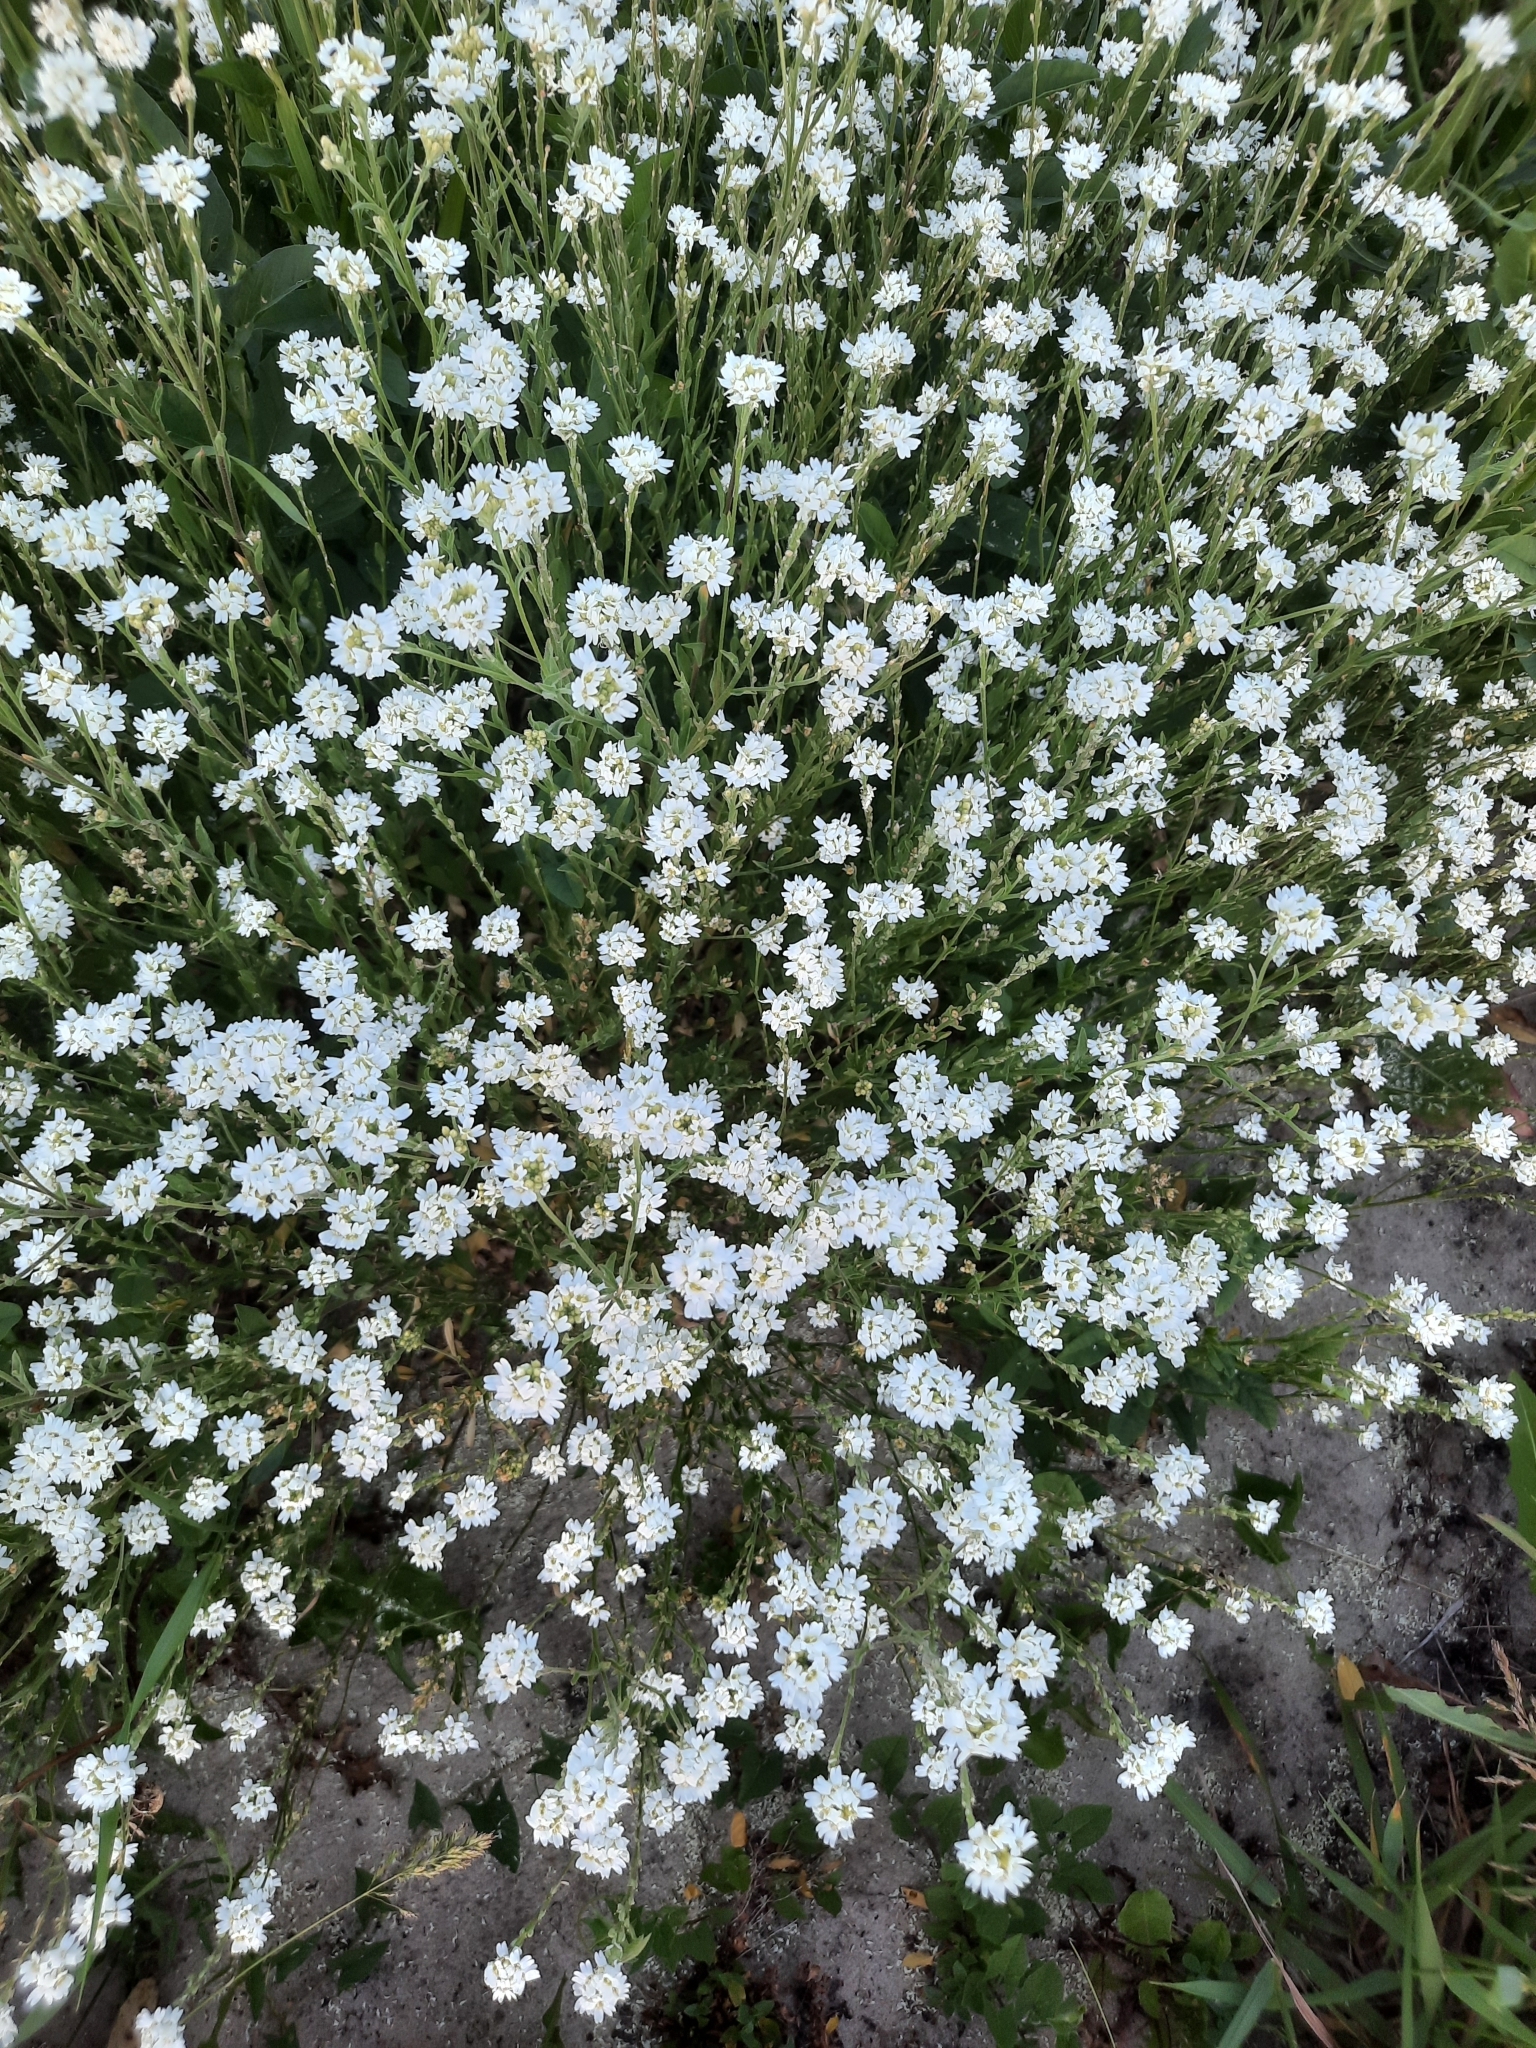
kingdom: Plantae
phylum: Tracheophyta
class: Magnoliopsida
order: Brassicales
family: Brassicaceae
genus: Berteroa
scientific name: Berteroa incana
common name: Hoary alison
